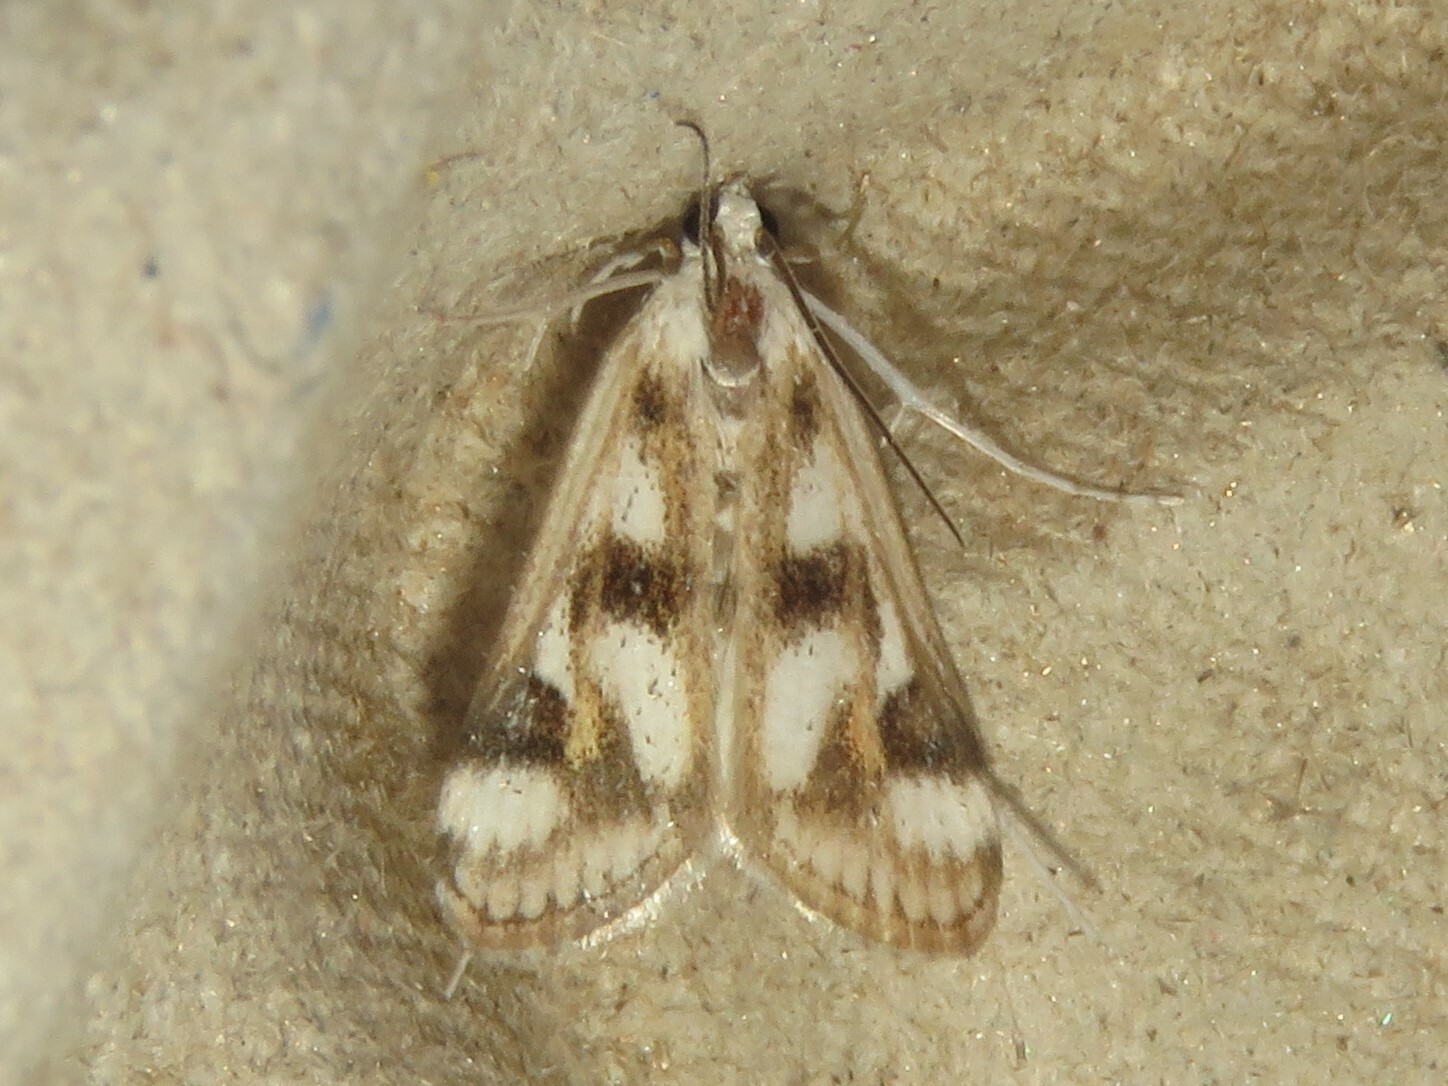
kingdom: Animalia
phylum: Arthropoda
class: Insecta
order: Lepidoptera
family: Crambidae
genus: Parapoynx
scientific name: Parapoynx maculalis
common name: Polymorphic pondweed moth
